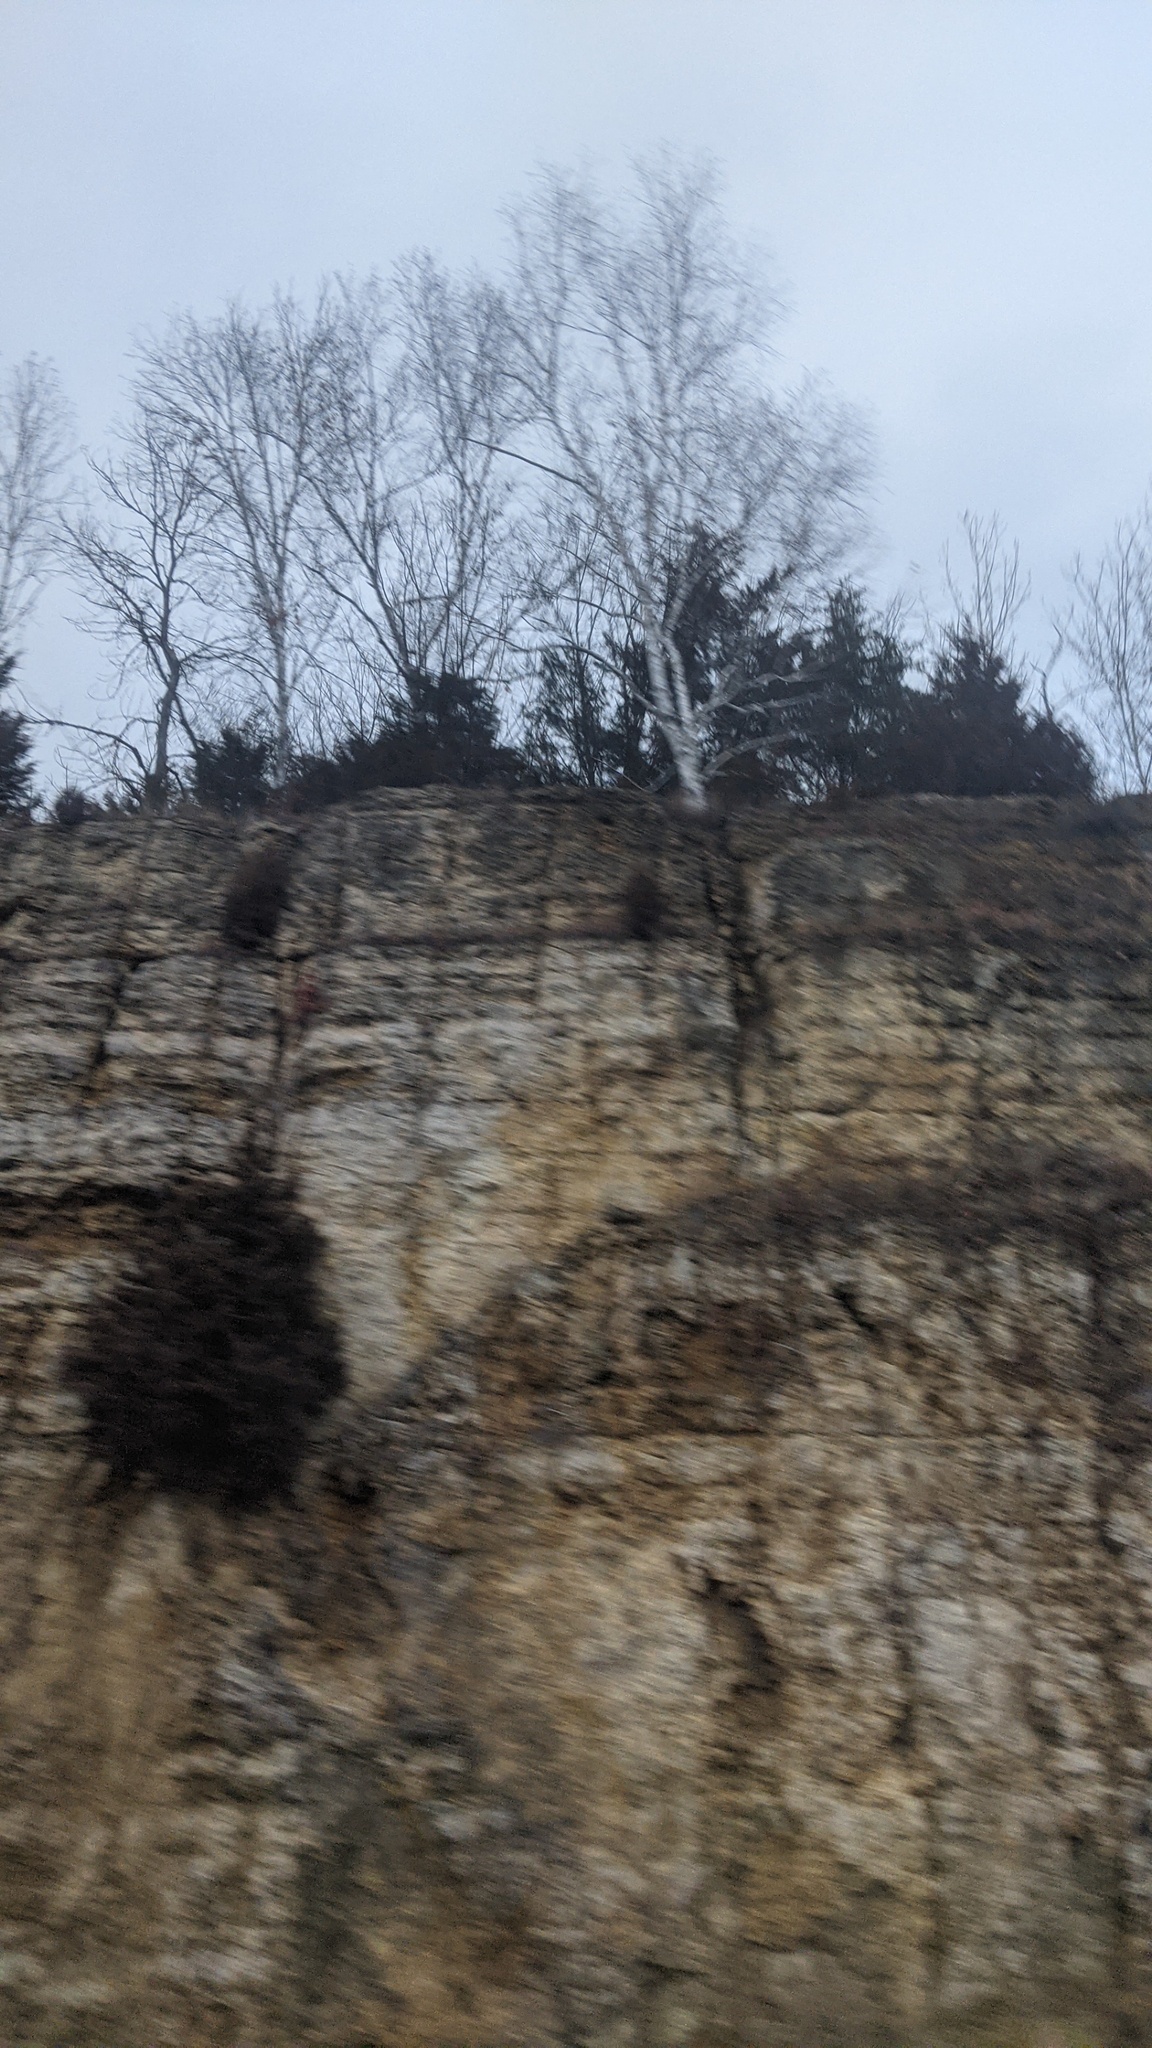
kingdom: Plantae
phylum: Tracheophyta
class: Pinopsida
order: Pinales
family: Cupressaceae
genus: Juniperus
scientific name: Juniperus virginiana
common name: Red juniper
